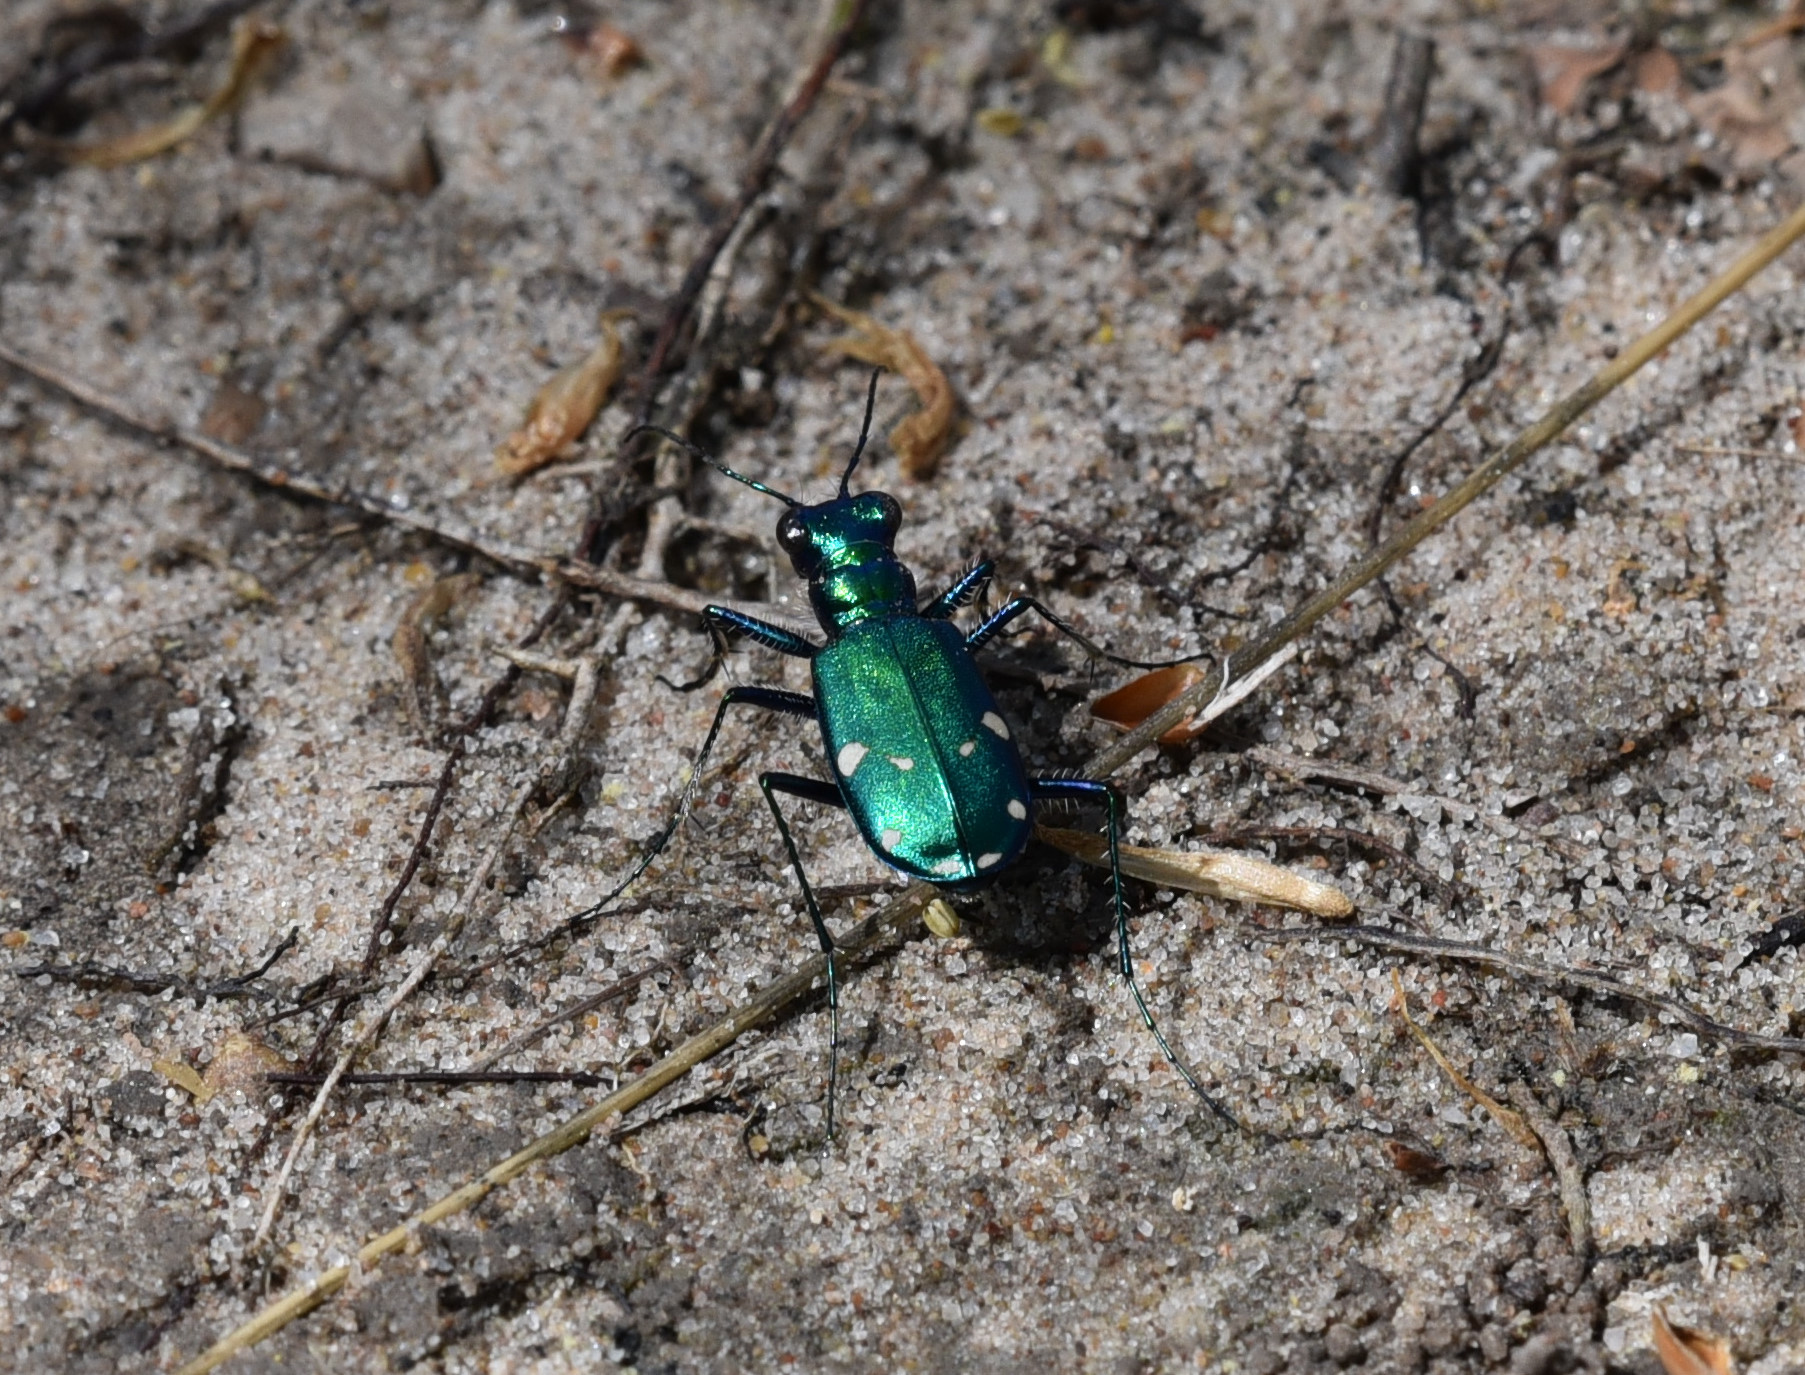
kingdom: Animalia
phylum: Arthropoda
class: Insecta
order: Coleoptera
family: Carabidae
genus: Cicindela
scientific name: Cicindela sexguttata
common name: Six-spotted tiger beetle
